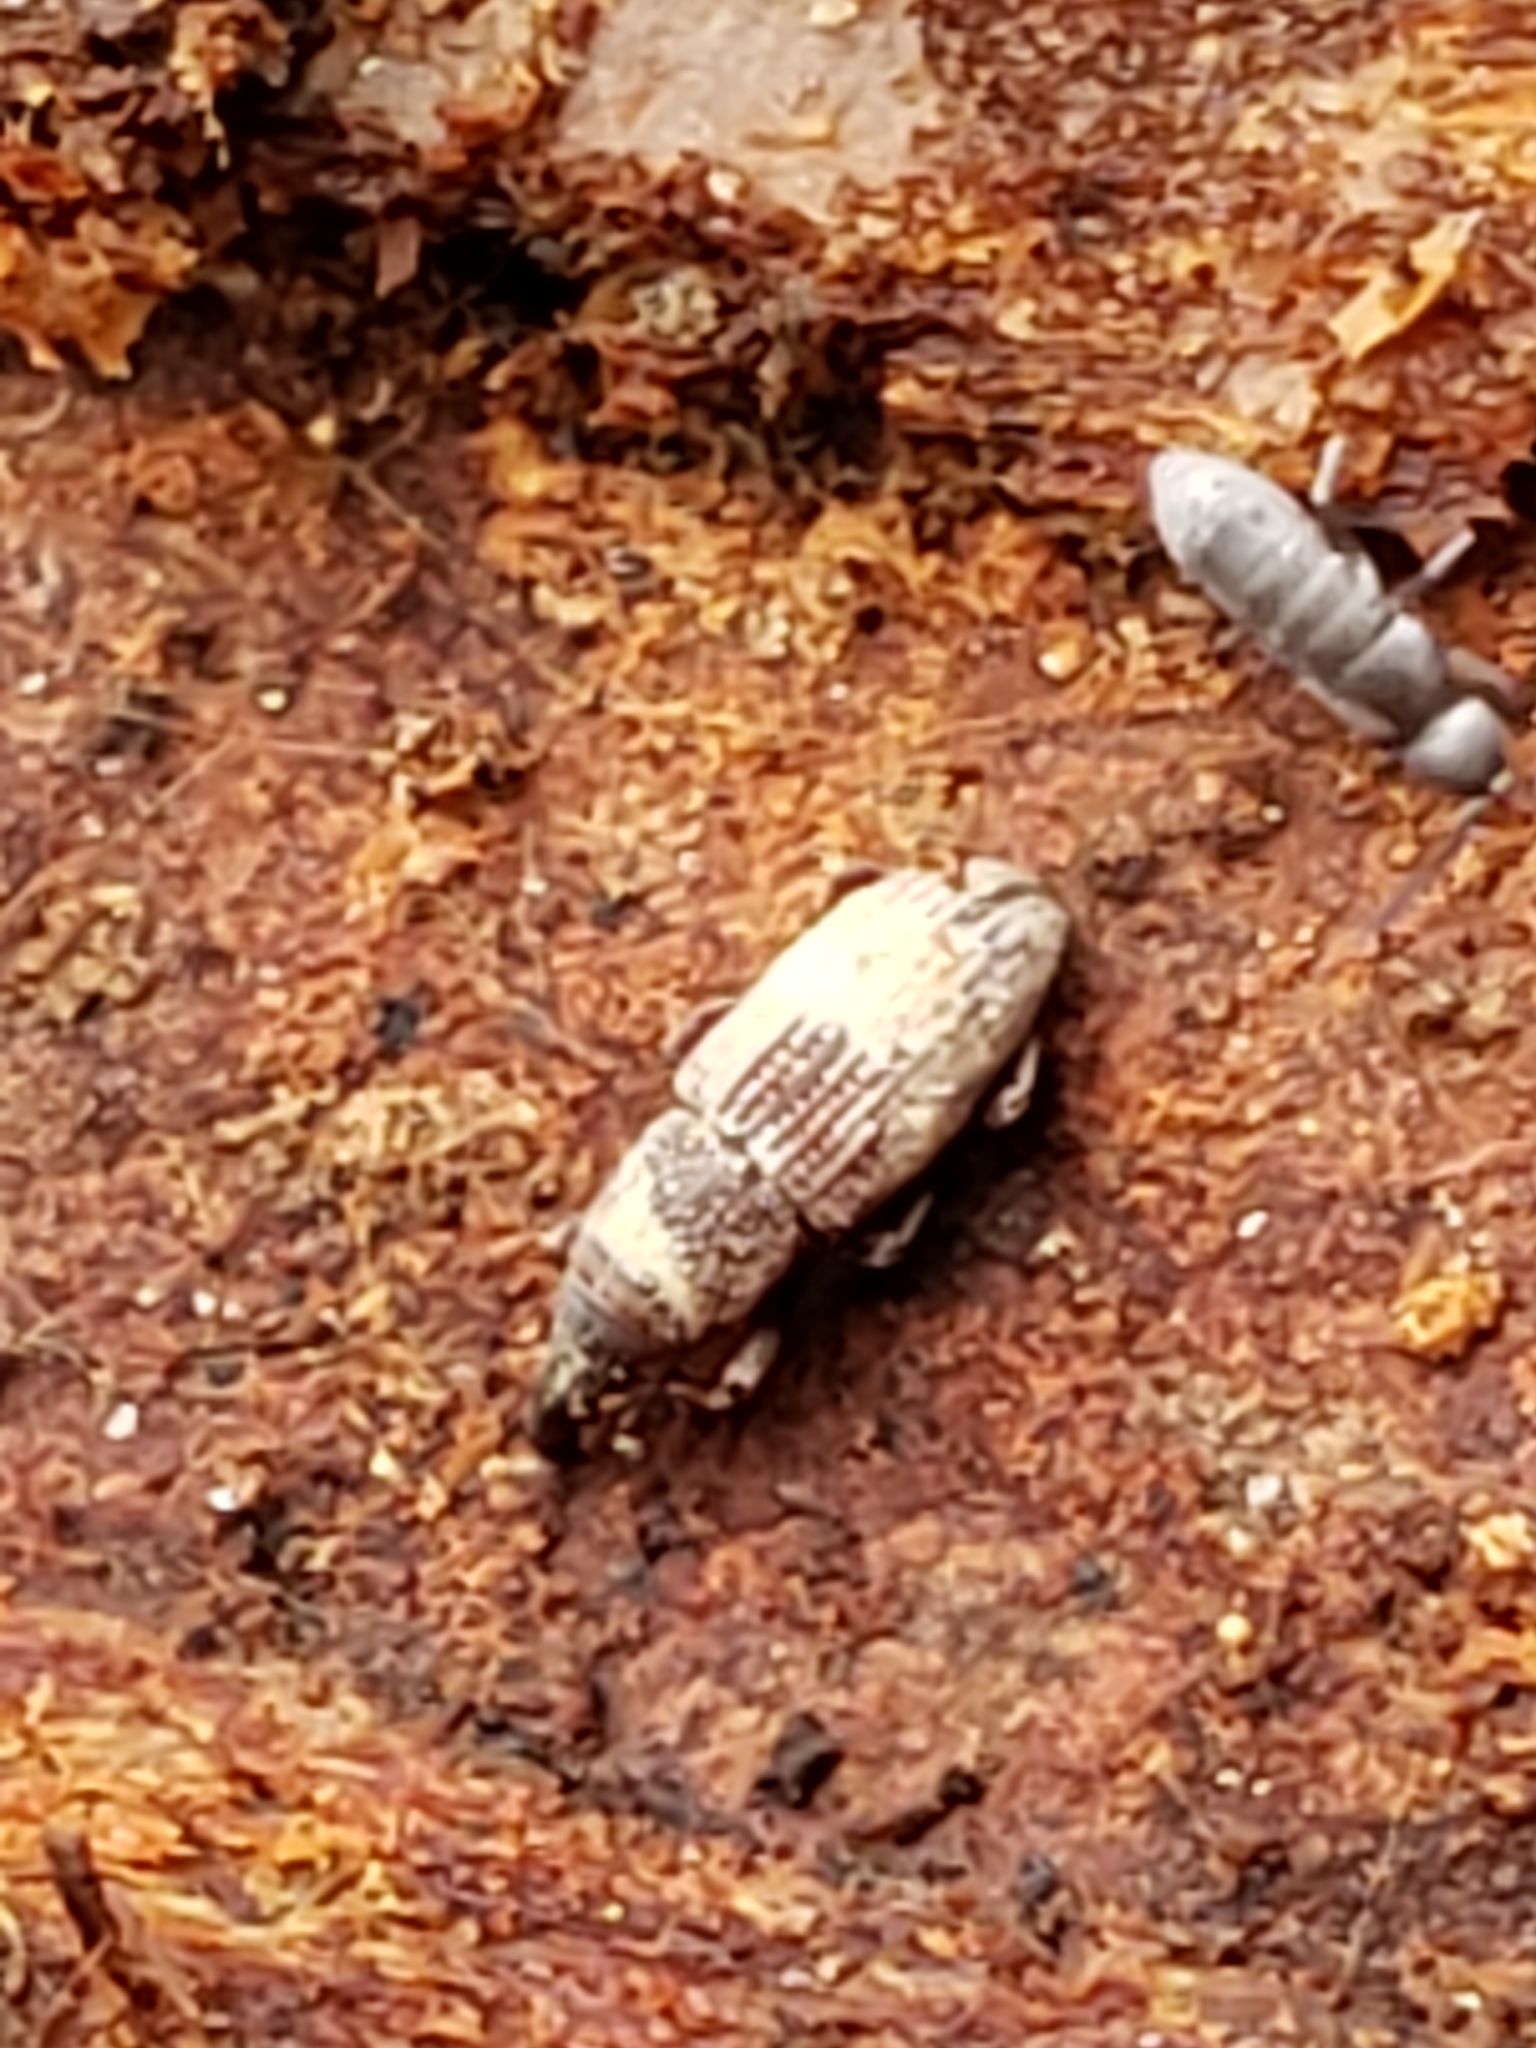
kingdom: Animalia
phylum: Arthropoda
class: Insecta
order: Coleoptera
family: Dryophthoridae
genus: Dryophthorus
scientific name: Dryophthorus americanus
